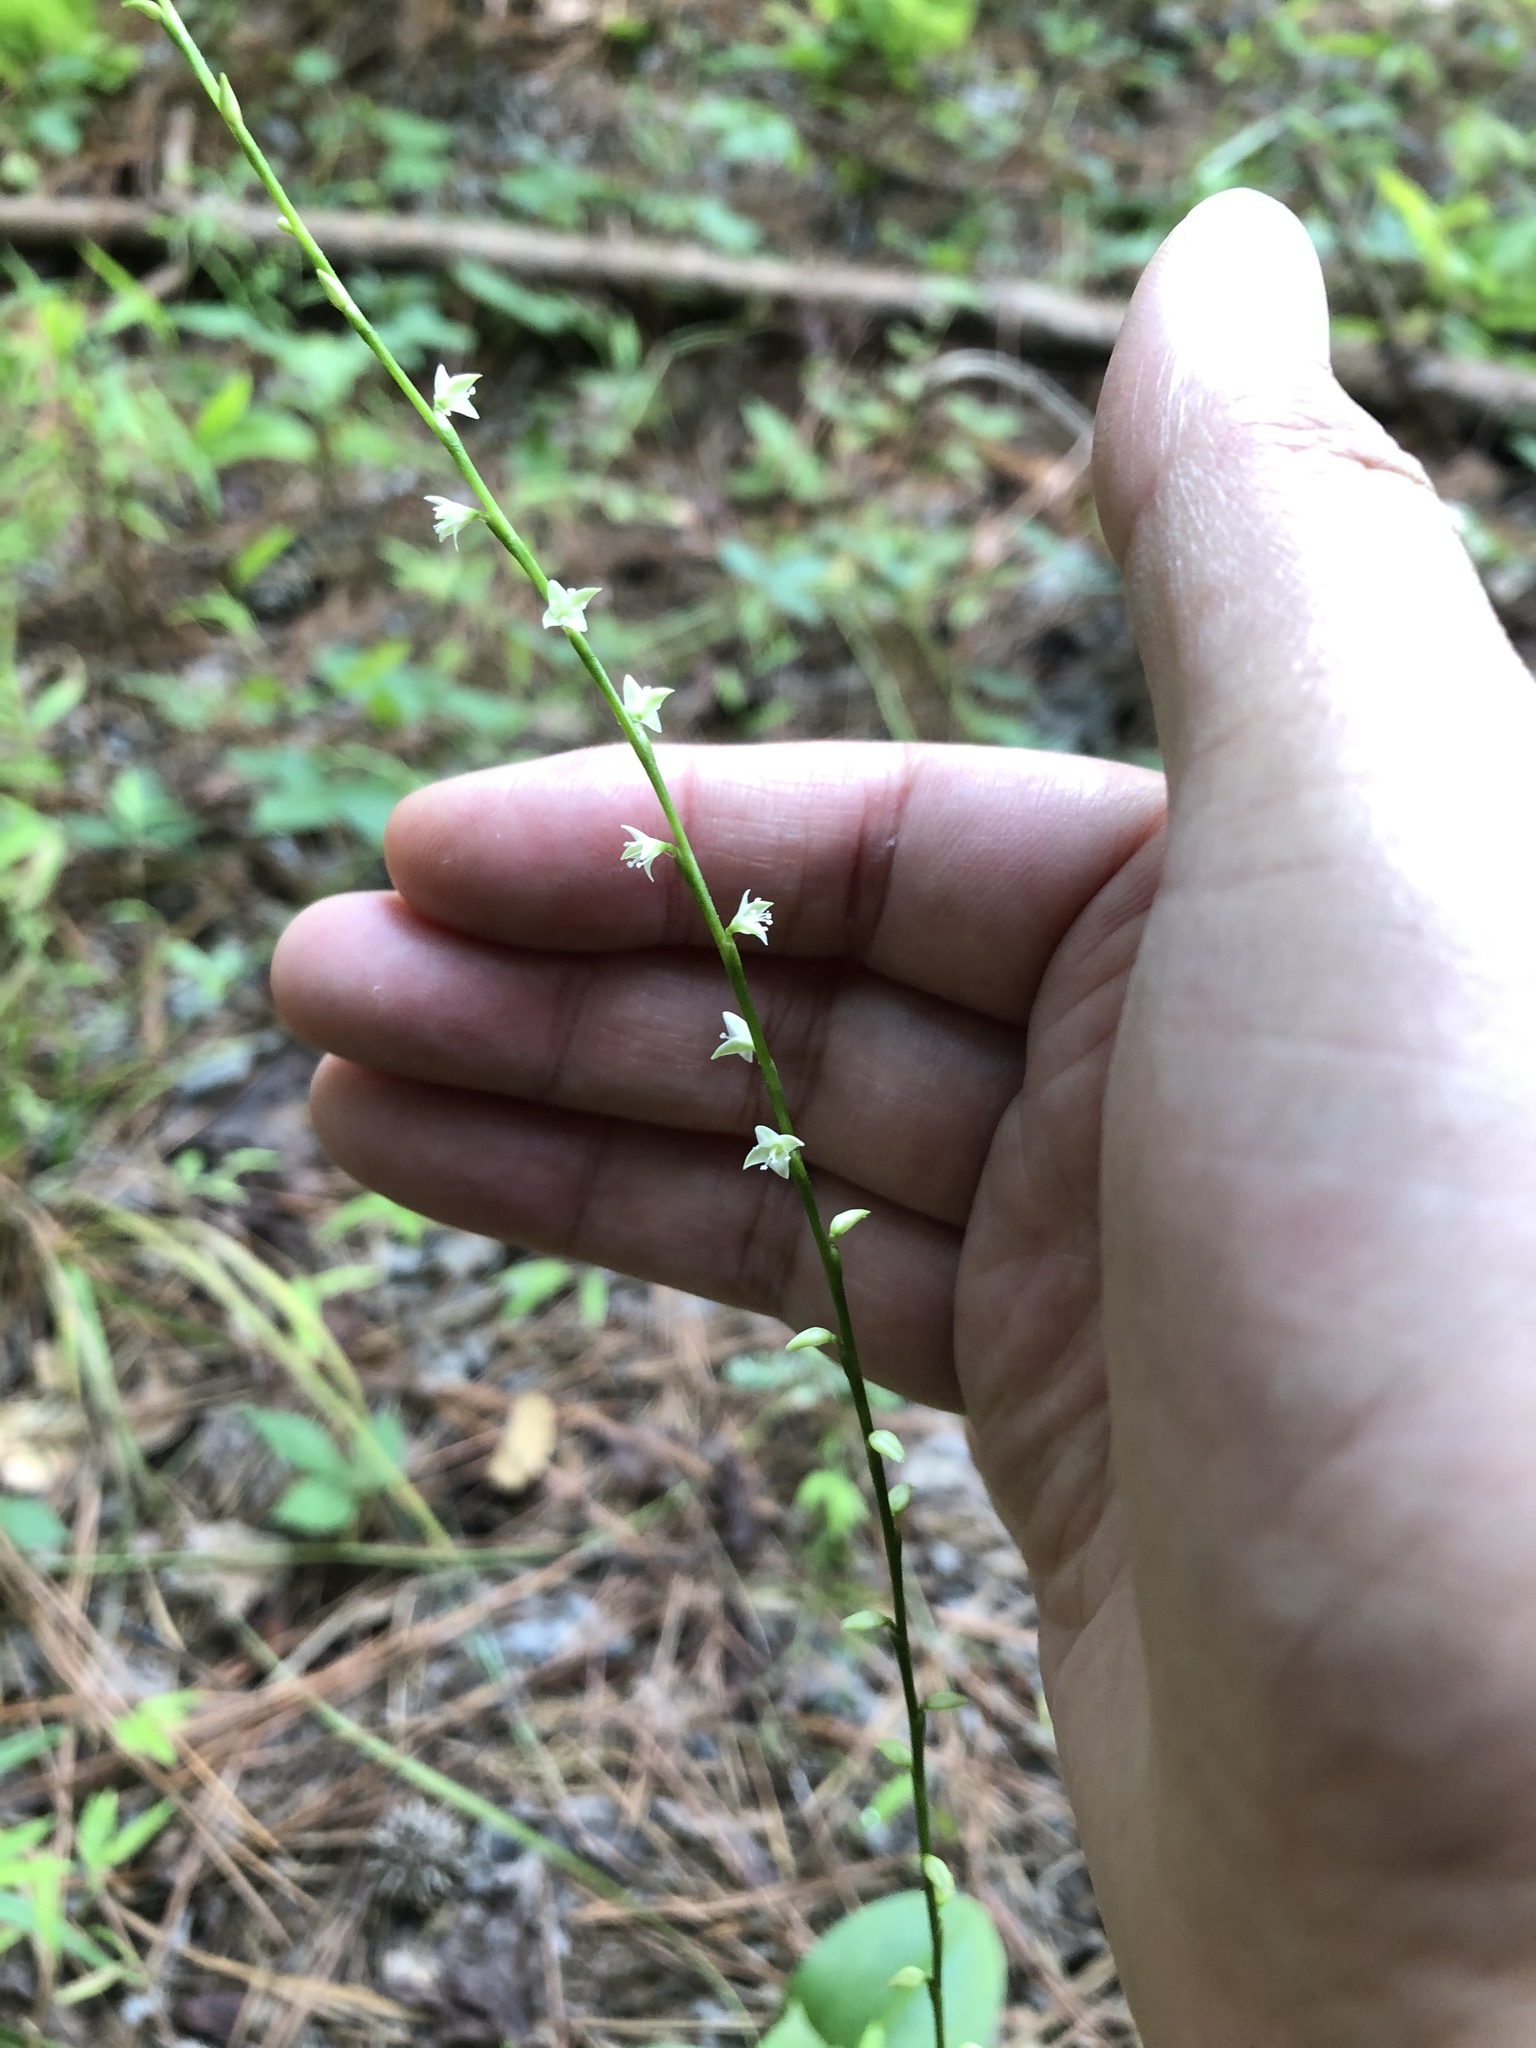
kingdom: Plantae
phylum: Tracheophyta
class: Magnoliopsida
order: Caryophyllales
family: Polygonaceae
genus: Persicaria
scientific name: Persicaria virginiana
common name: Jumpseed
